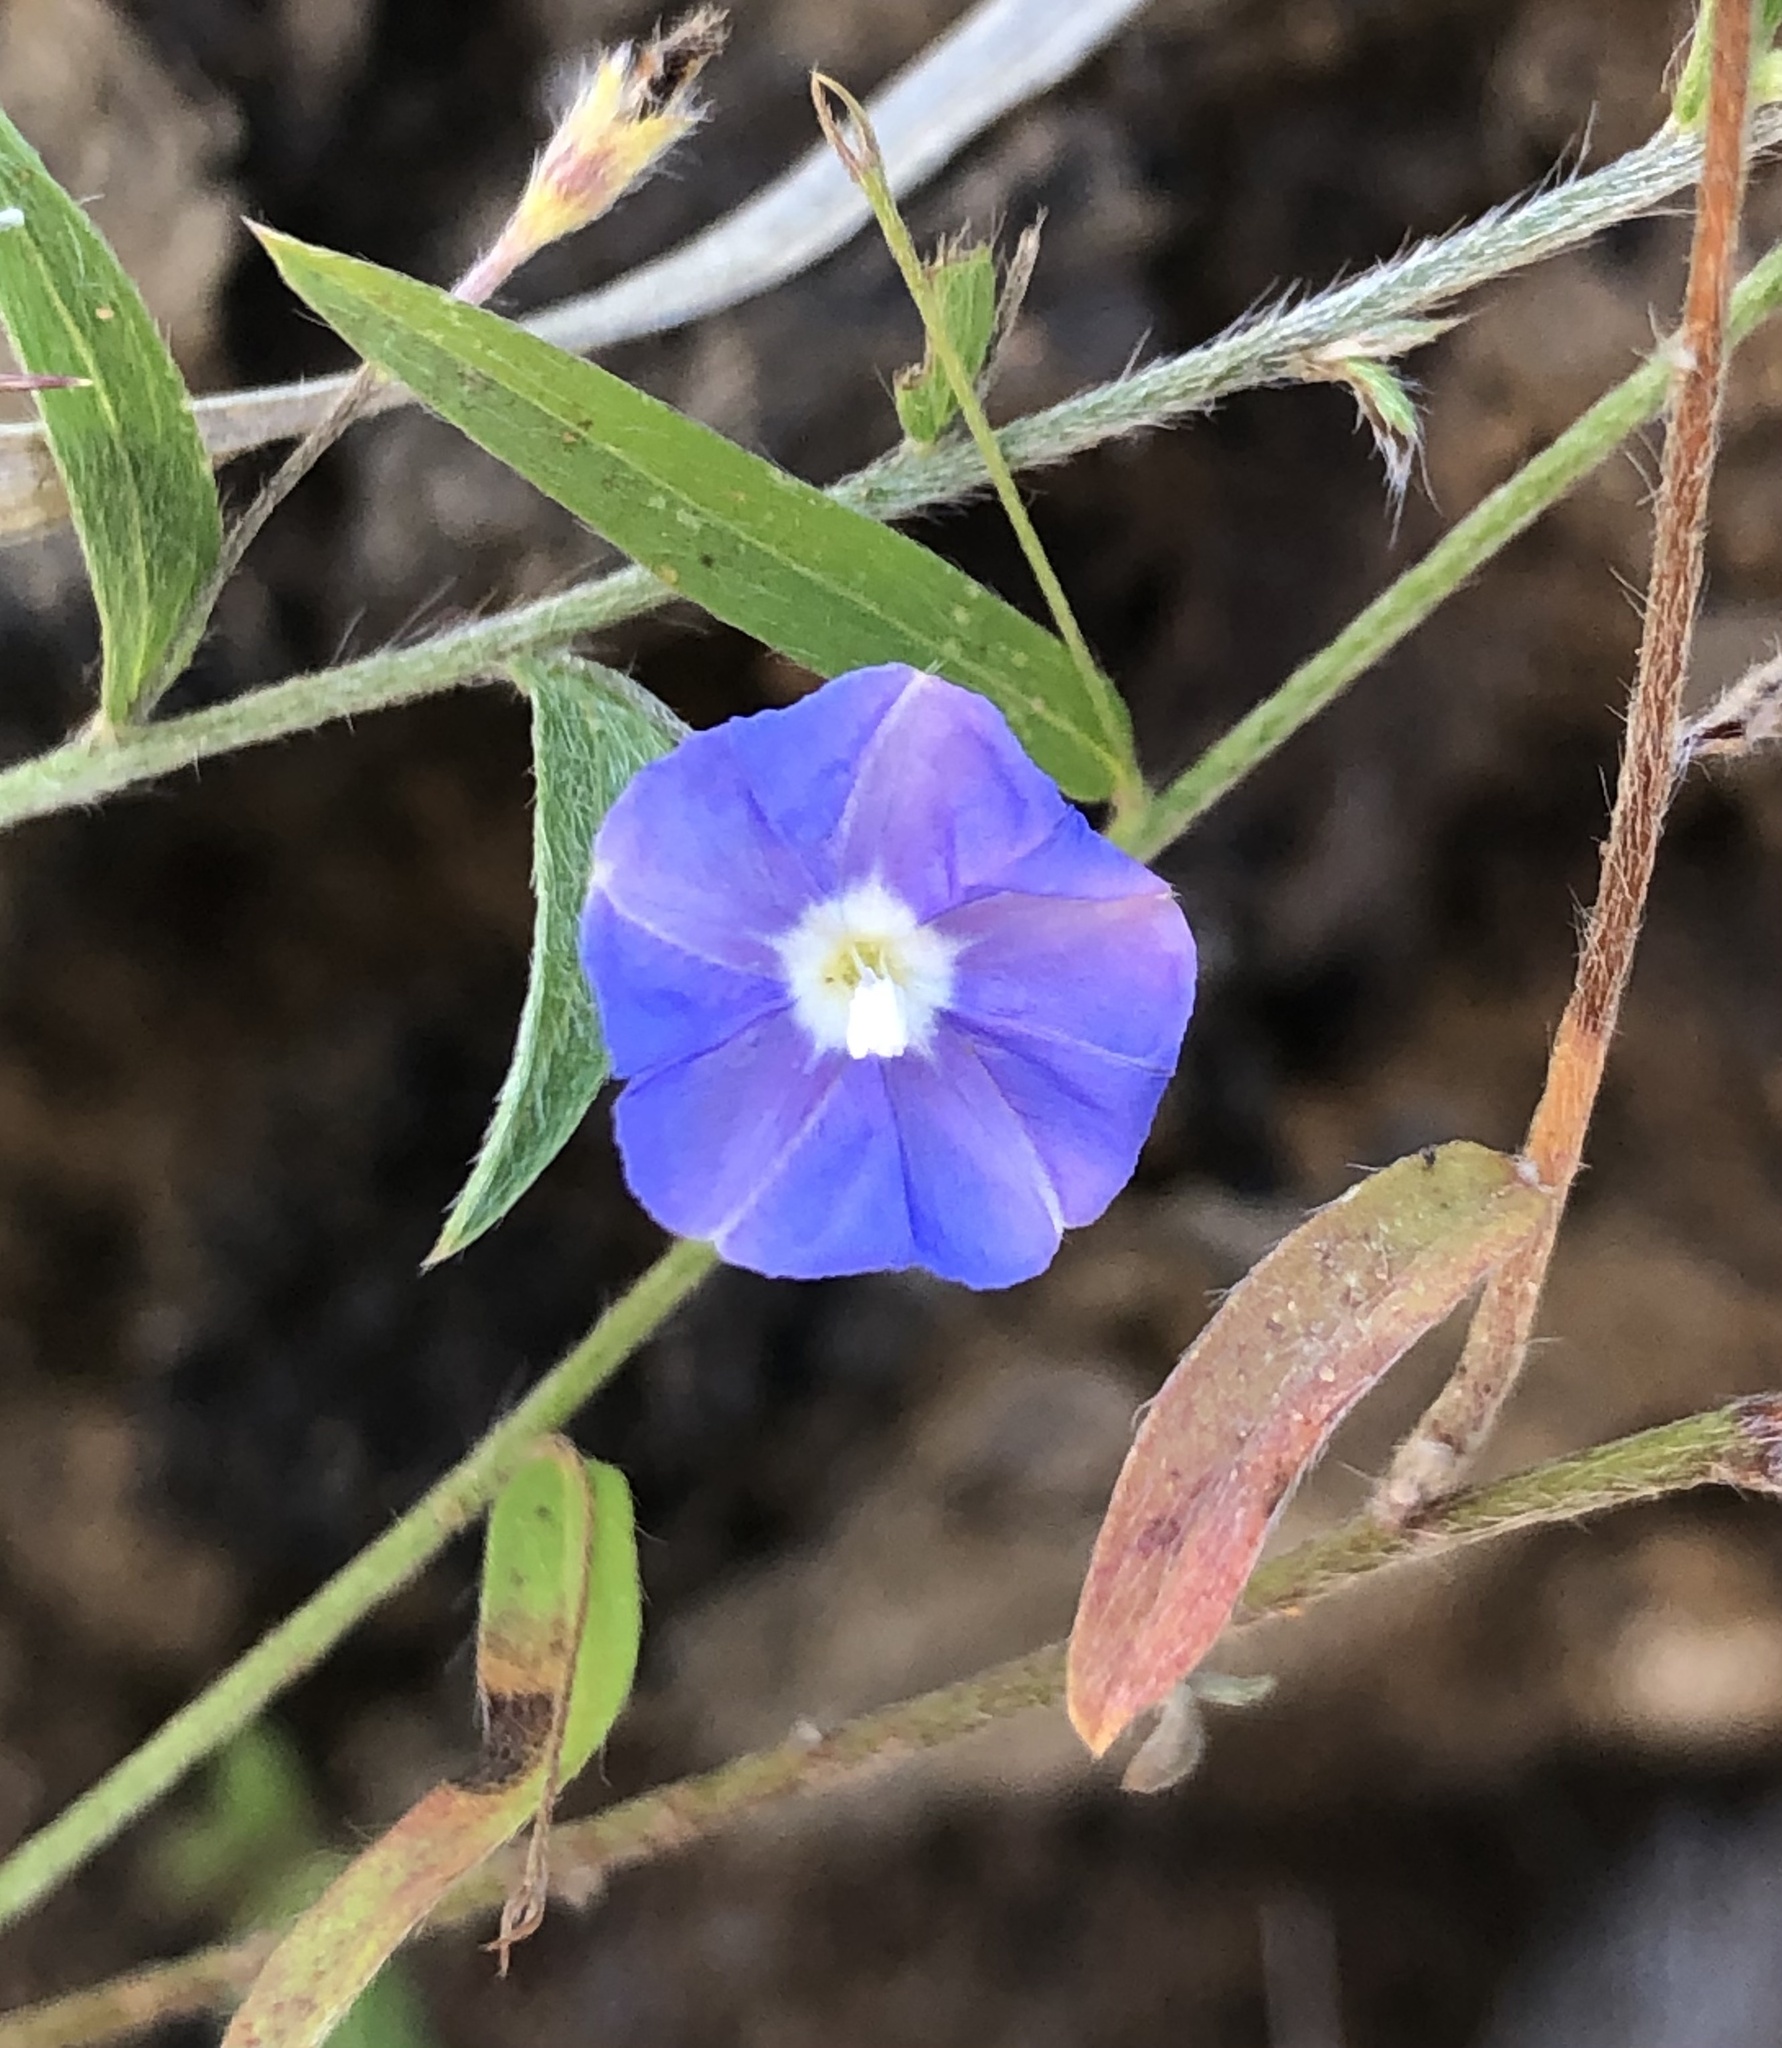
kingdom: Plantae
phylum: Tracheophyta
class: Magnoliopsida
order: Solanales
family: Convolvulaceae
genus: Evolvulus
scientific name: Evolvulus alsinoides
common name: Slender dwarf morning-glory
